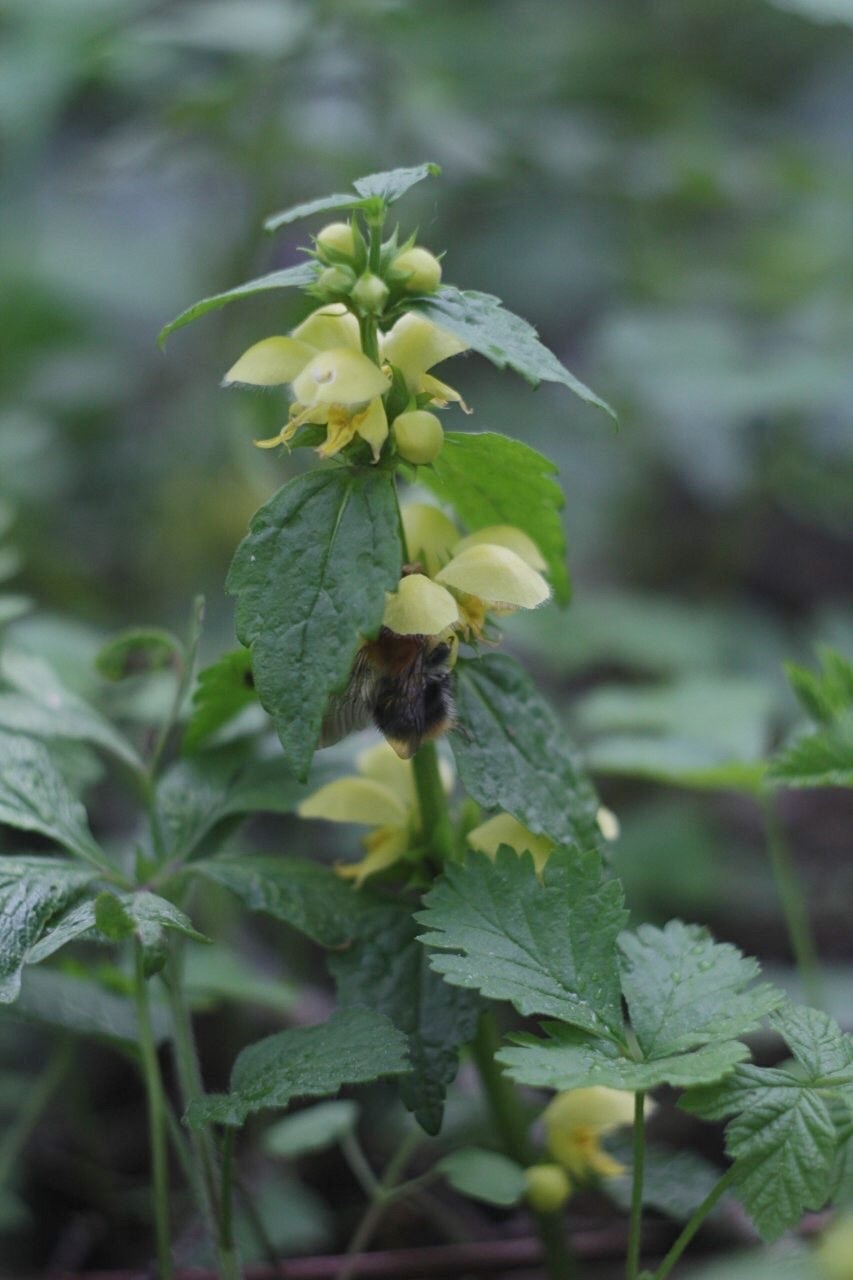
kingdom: Plantae
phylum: Tracheophyta
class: Magnoliopsida
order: Lamiales
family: Lamiaceae
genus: Lamium
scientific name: Lamium galeobdolon
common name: Yellow archangel
